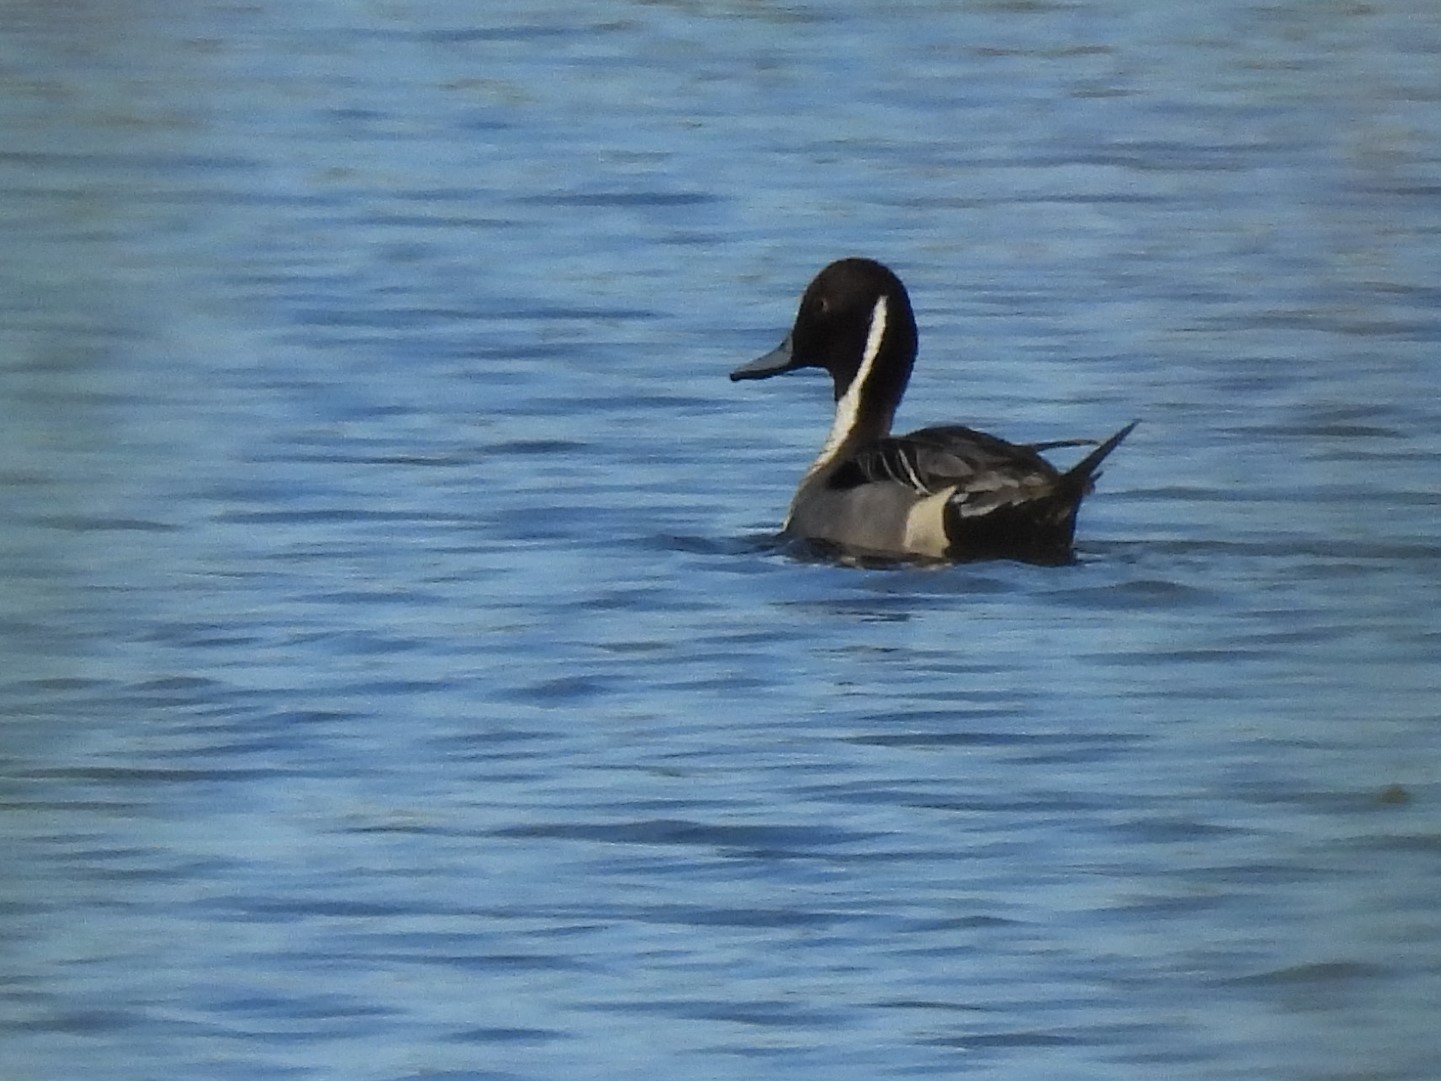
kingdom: Animalia
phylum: Chordata
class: Aves
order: Anseriformes
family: Anatidae
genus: Anas
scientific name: Anas acuta
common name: Northern pintail
